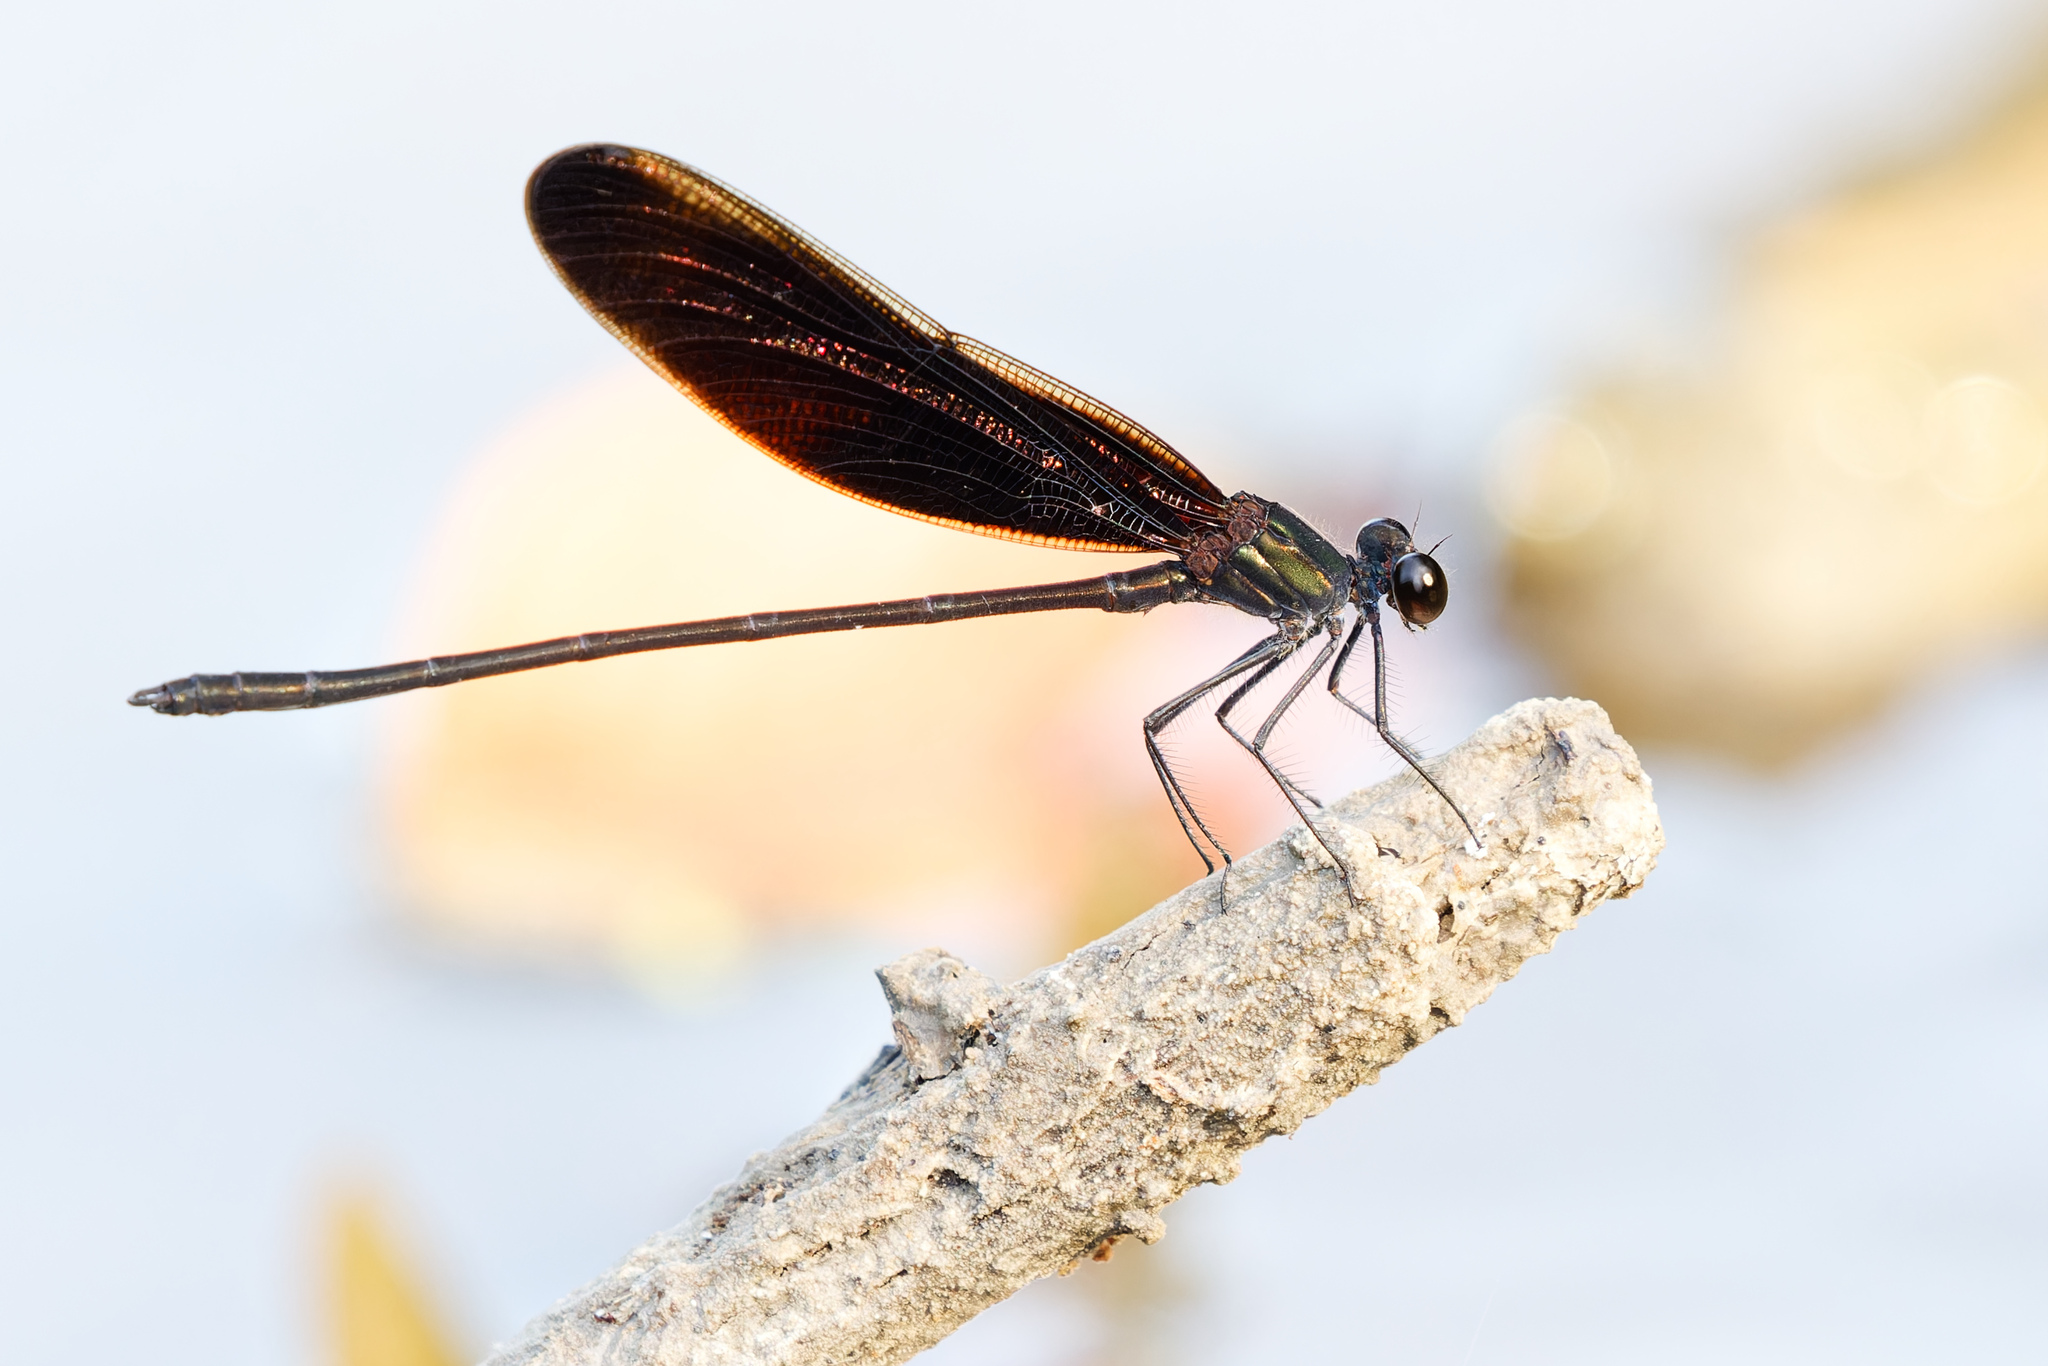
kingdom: Animalia
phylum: Arthropoda
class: Insecta
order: Odonata
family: Calopterygidae
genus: Hetaerina
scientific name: Hetaerina titia
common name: Smoky rubyspot
